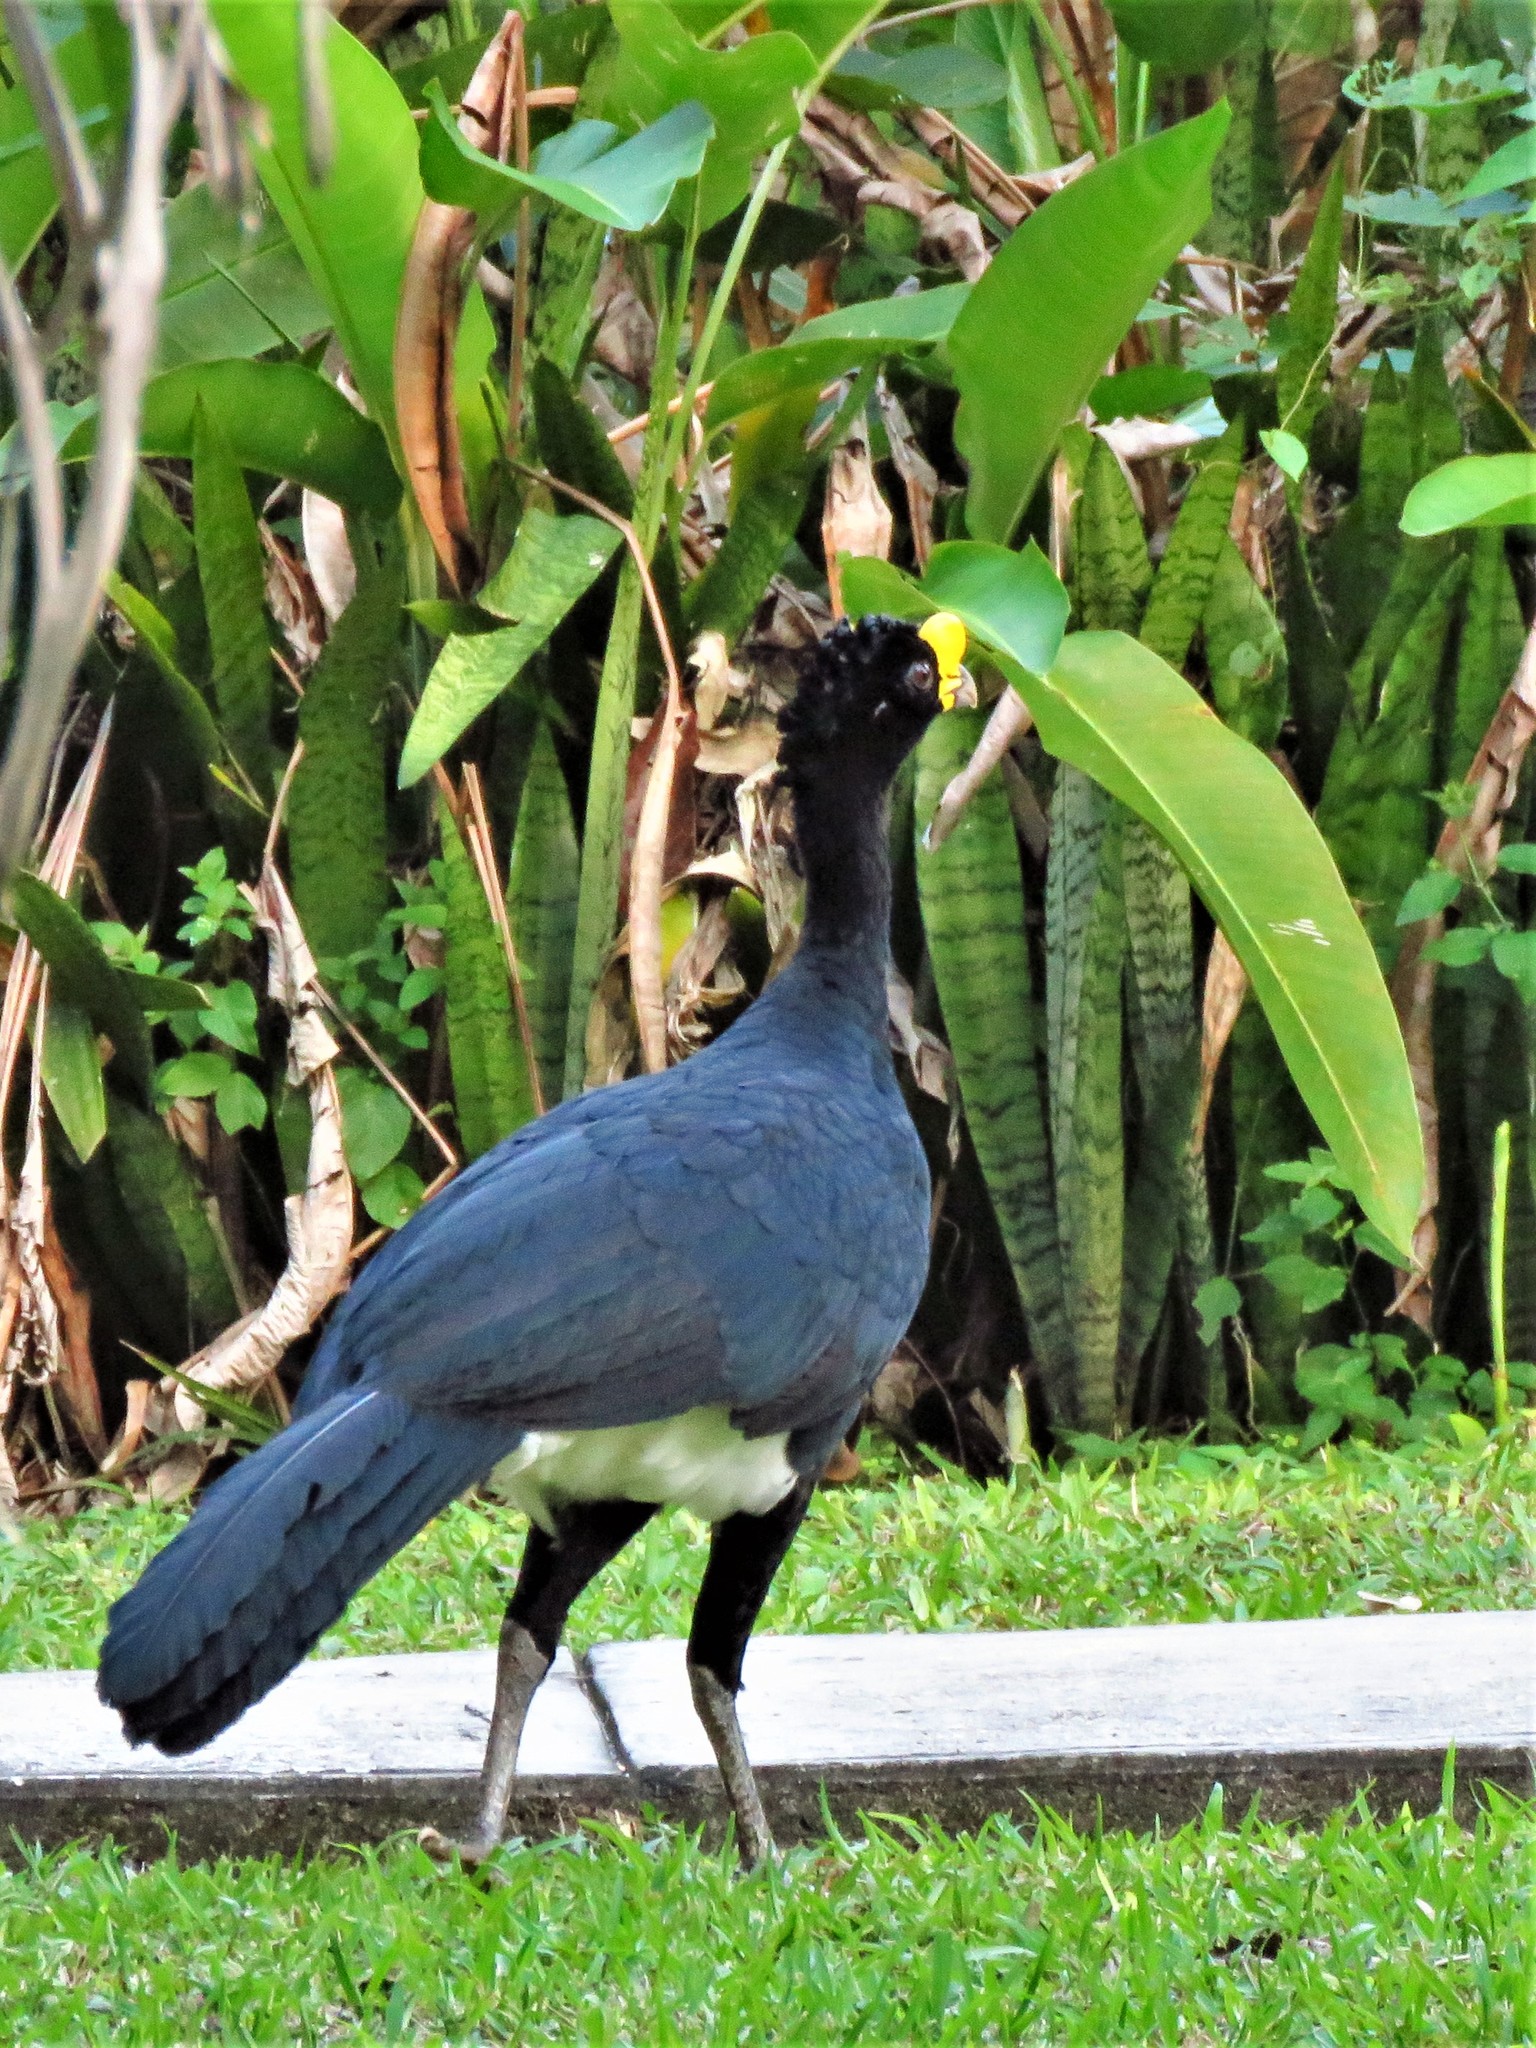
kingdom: Animalia
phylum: Chordata
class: Aves
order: Galliformes
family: Cracidae
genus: Crax
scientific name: Crax rubra
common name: Great curassow
